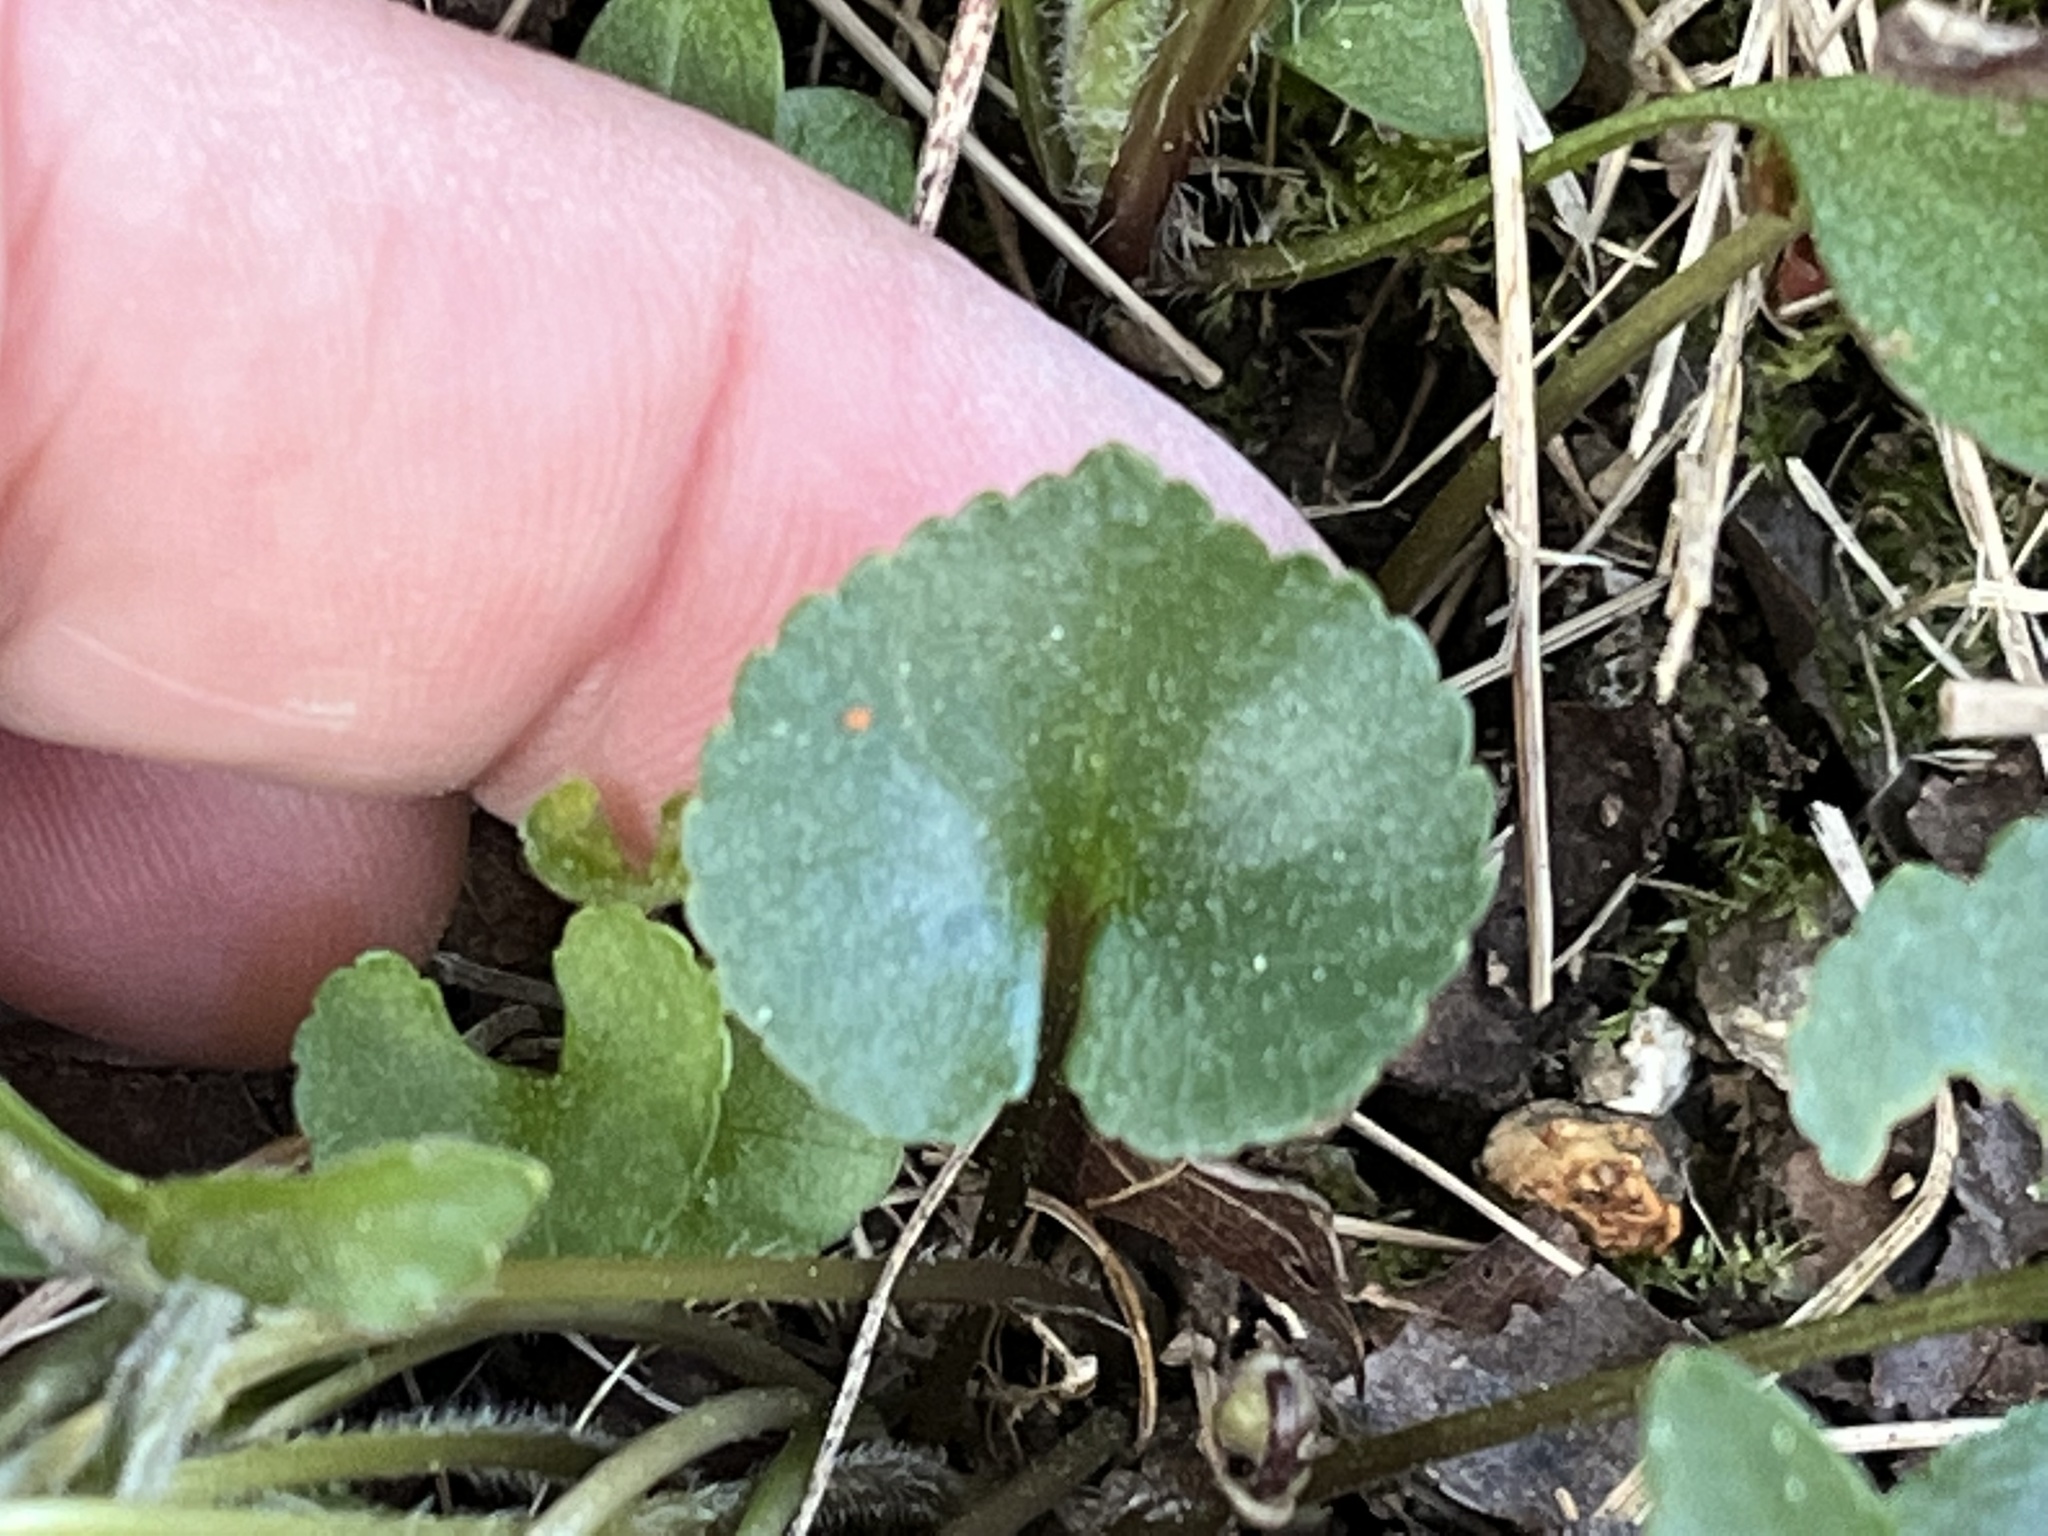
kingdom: Plantae
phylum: Tracheophyta
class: Magnoliopsida
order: Malpighiales
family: Violaceae
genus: Viola
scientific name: Viola palmata
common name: Early blue violet
